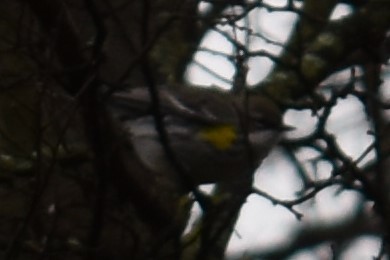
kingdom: Animalia
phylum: Chordata
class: Aves
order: Passeriformes
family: Parulidae
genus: Setophaga
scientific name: Setophaga coronata
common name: Myrtle warbler
